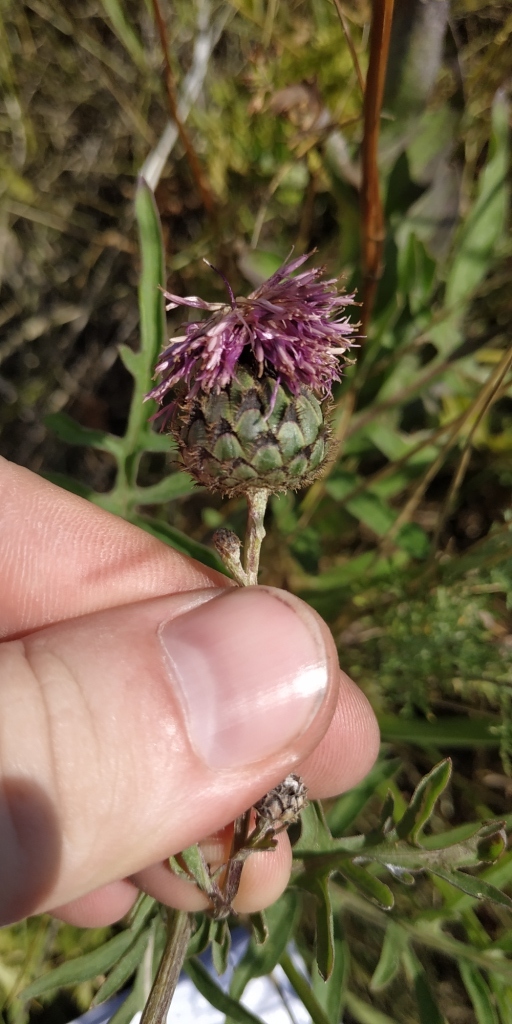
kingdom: Plantae
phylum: Tracheophyta
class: Magnoliopsida
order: Asterales
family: Asteraceae
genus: Centaurea
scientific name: Centaurea scabiosa
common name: Greater knapweed
